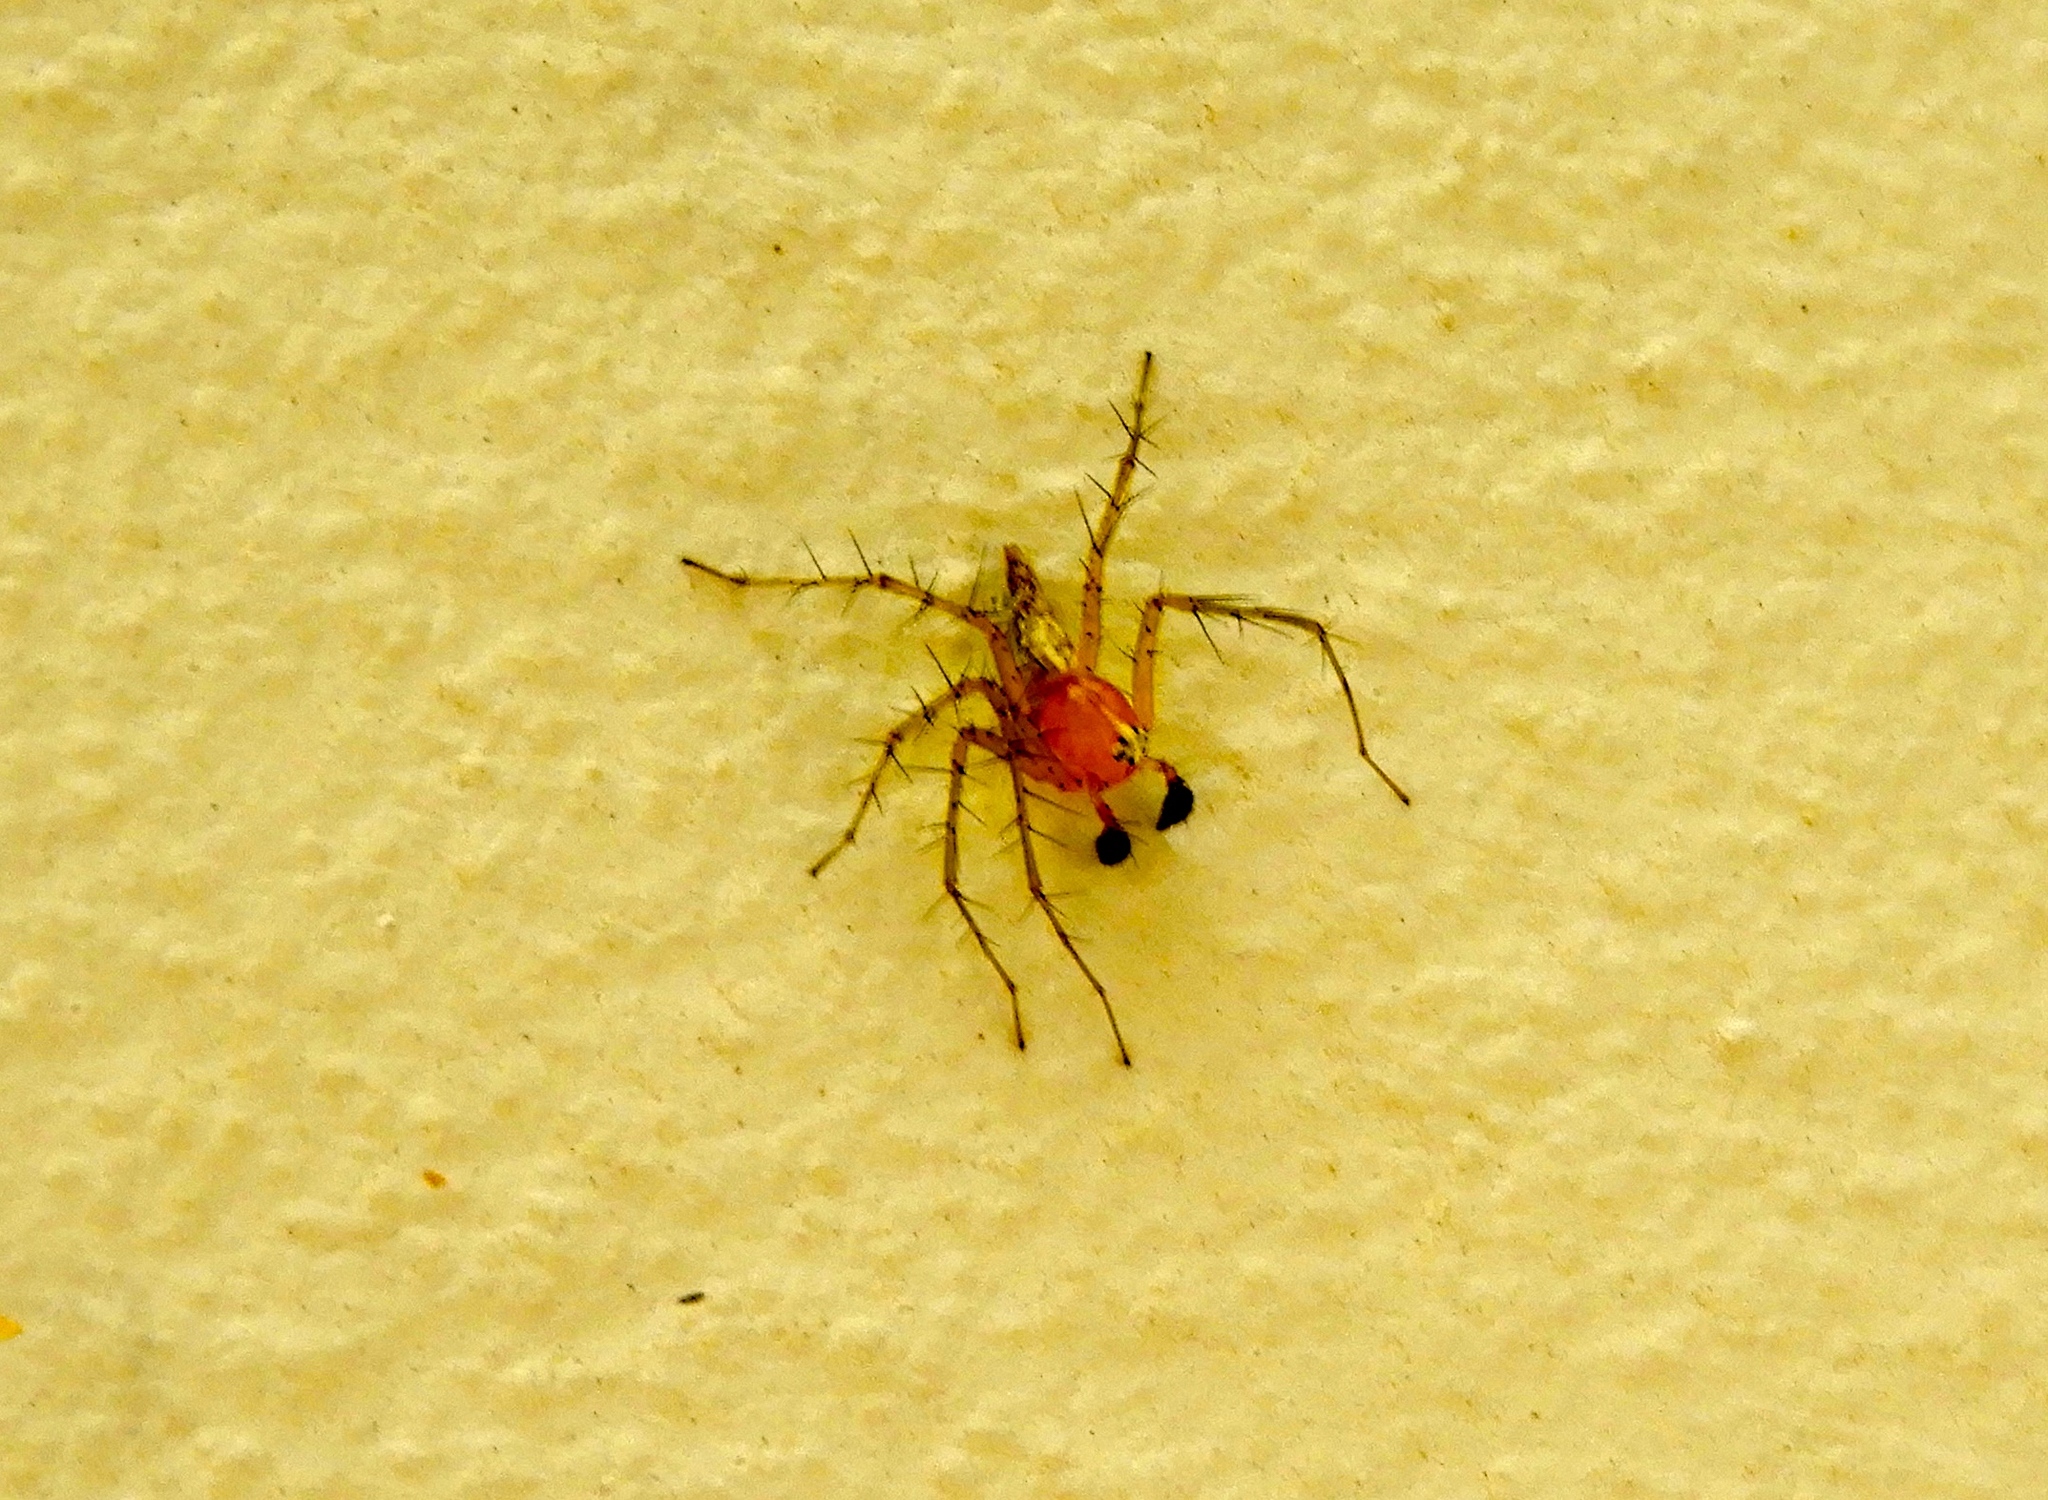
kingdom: Animalia
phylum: Arthropoda
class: Arachnida
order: Araneae
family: Oxyopidae
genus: Oxyopes
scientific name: Oxyopes
